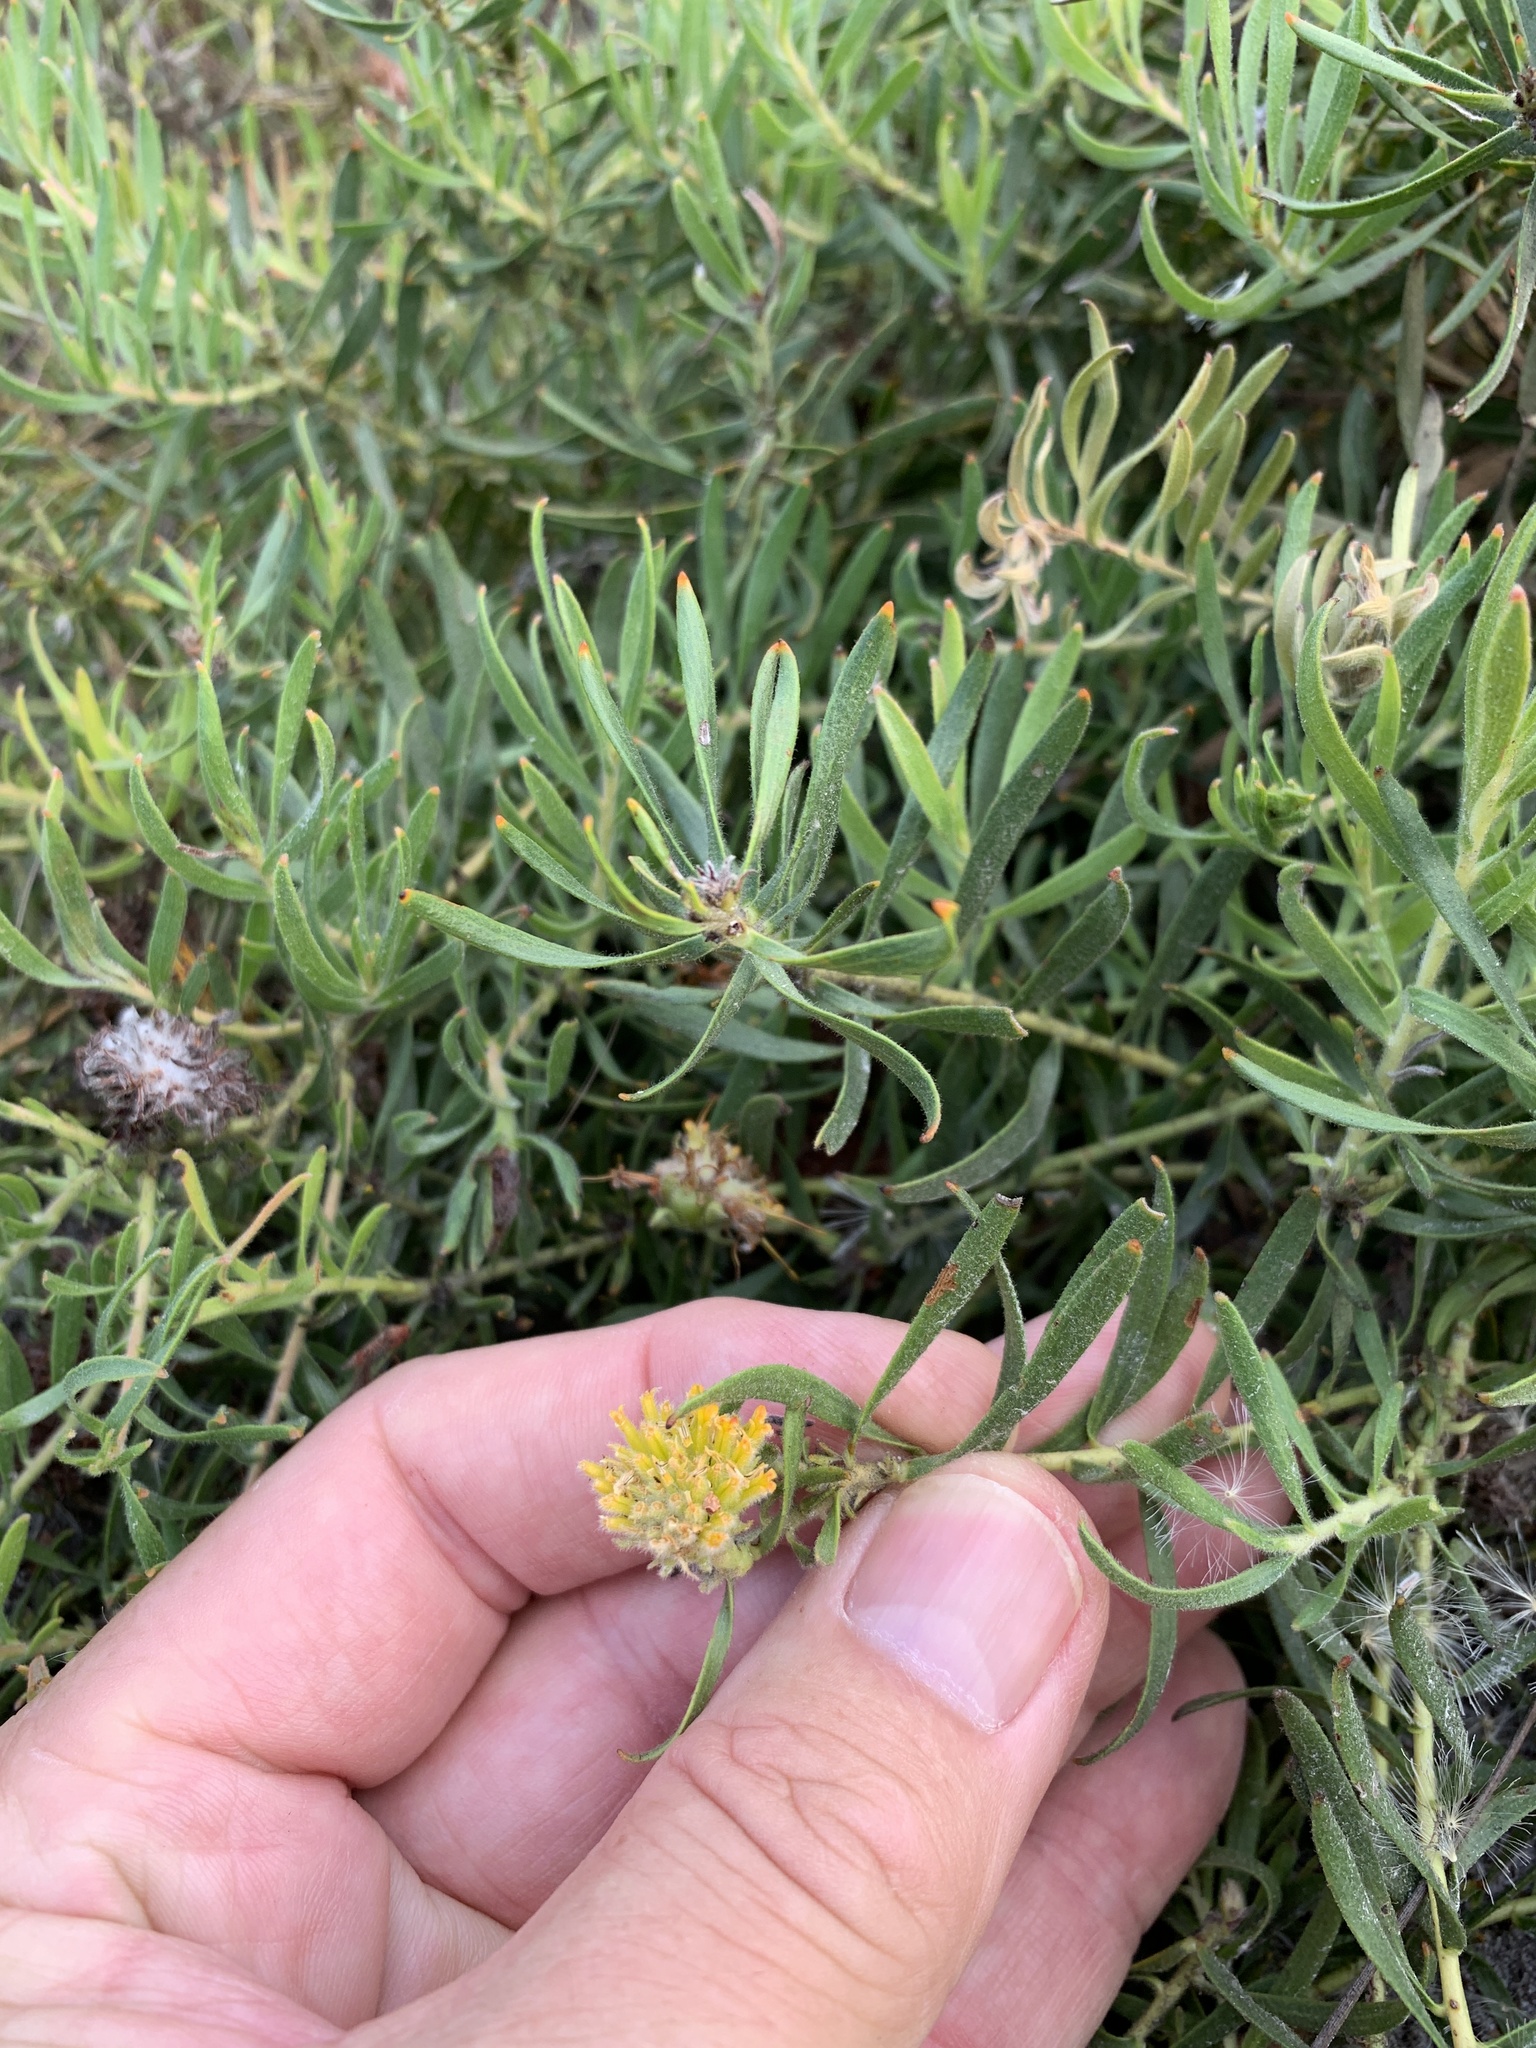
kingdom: Plantae
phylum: Tracheophyta
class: Magnoliopsida
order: Proteales
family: Proteaceae
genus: Leucospermum
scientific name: Leucospermum prostratum
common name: Yellow-trailing pincushion
